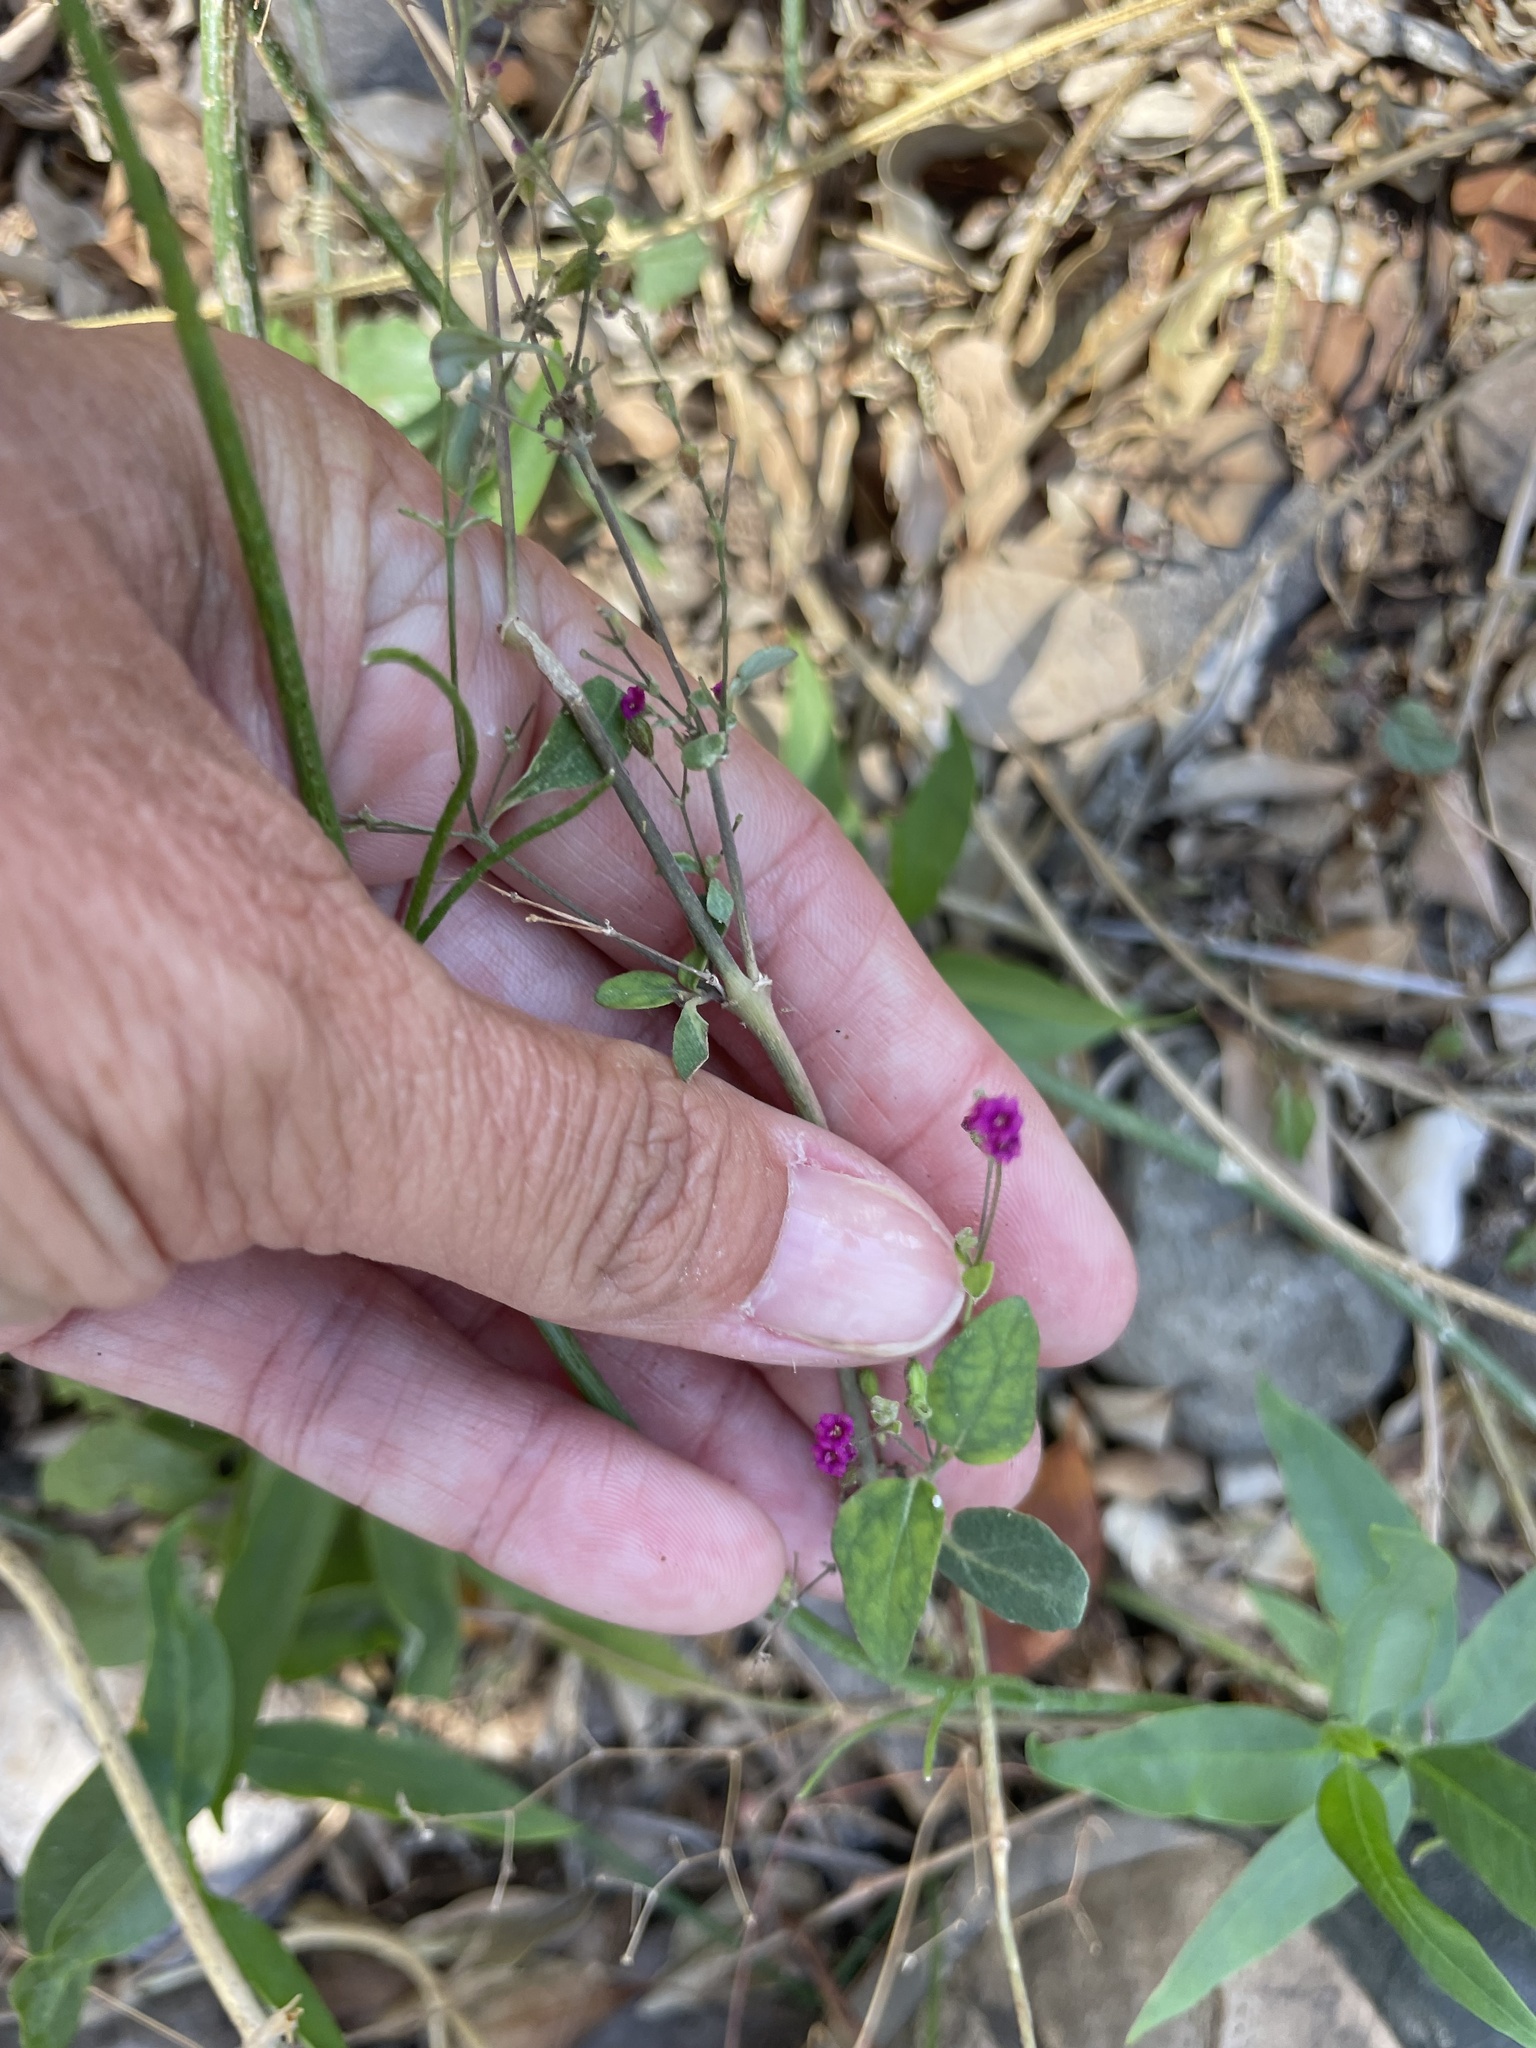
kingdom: Plantae
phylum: Tracheophyta
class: Magnoliopsida
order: Caryophyllales
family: Nyctaginaceae
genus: Boerhavia
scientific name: Boerhavia coccinea
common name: Scarlet spiderling
